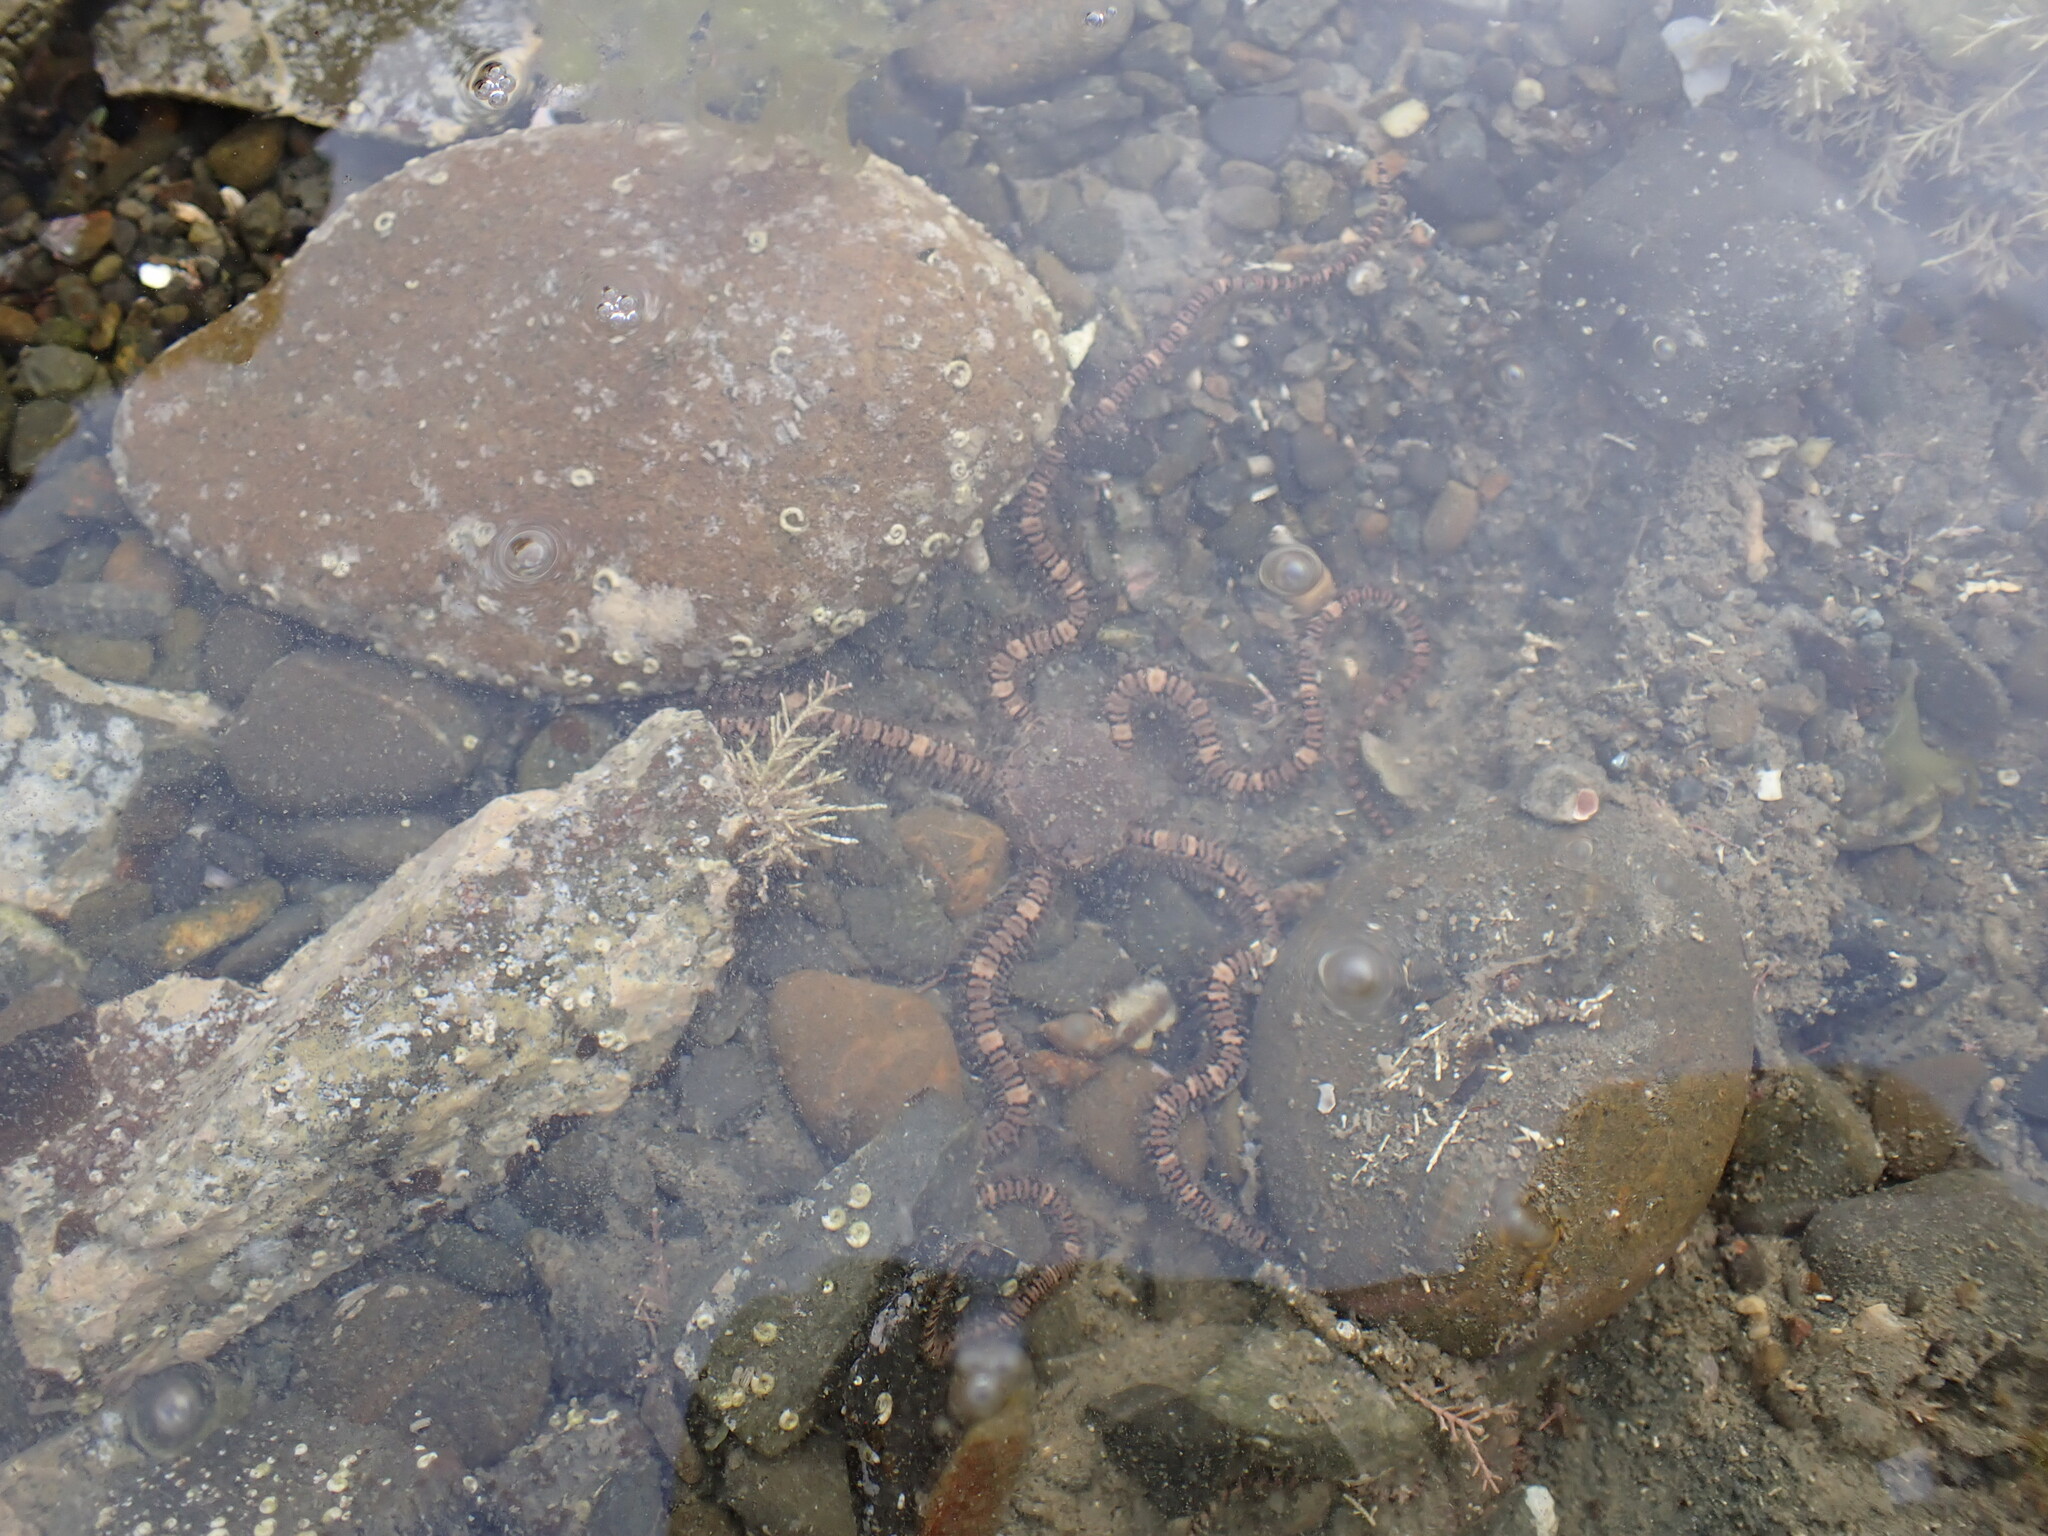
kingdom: Animalia
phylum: Echinodermata
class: Ophiuroidea
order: Amphilepidida
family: Ophionereididae
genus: Ophionereis
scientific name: Ophionereis fasciata
